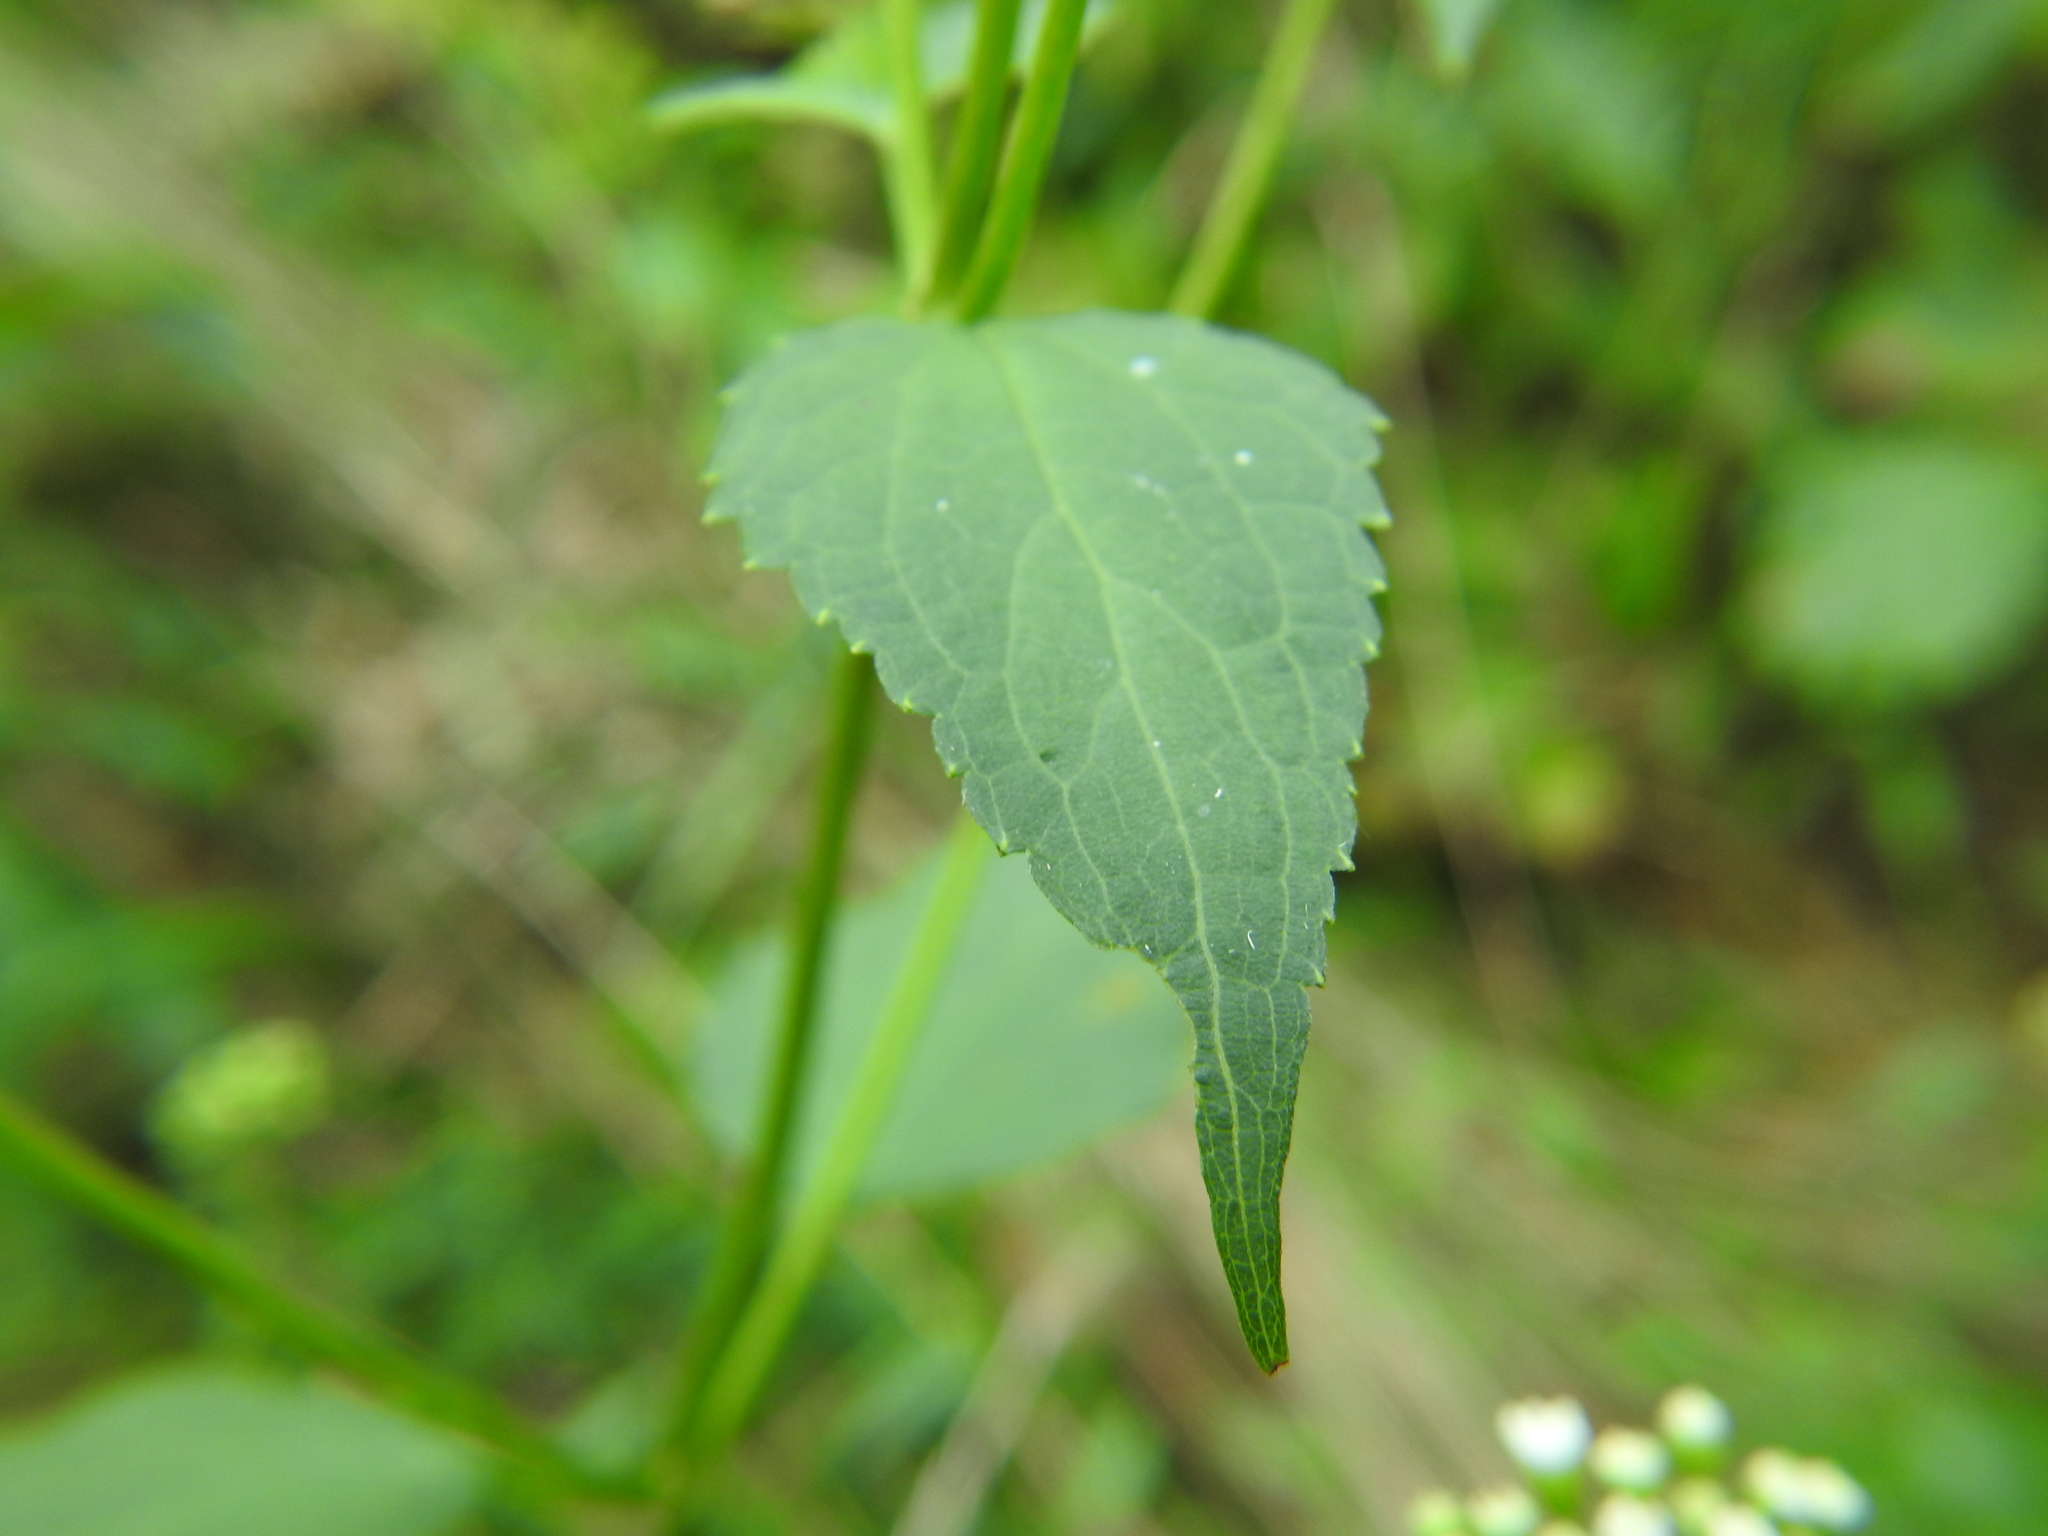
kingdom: Plantae
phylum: Tracheophyta
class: Magnoliopsida
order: Asterales
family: Asteraceae
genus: Ageratina
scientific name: Ageratina altissima
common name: White snakeroot
